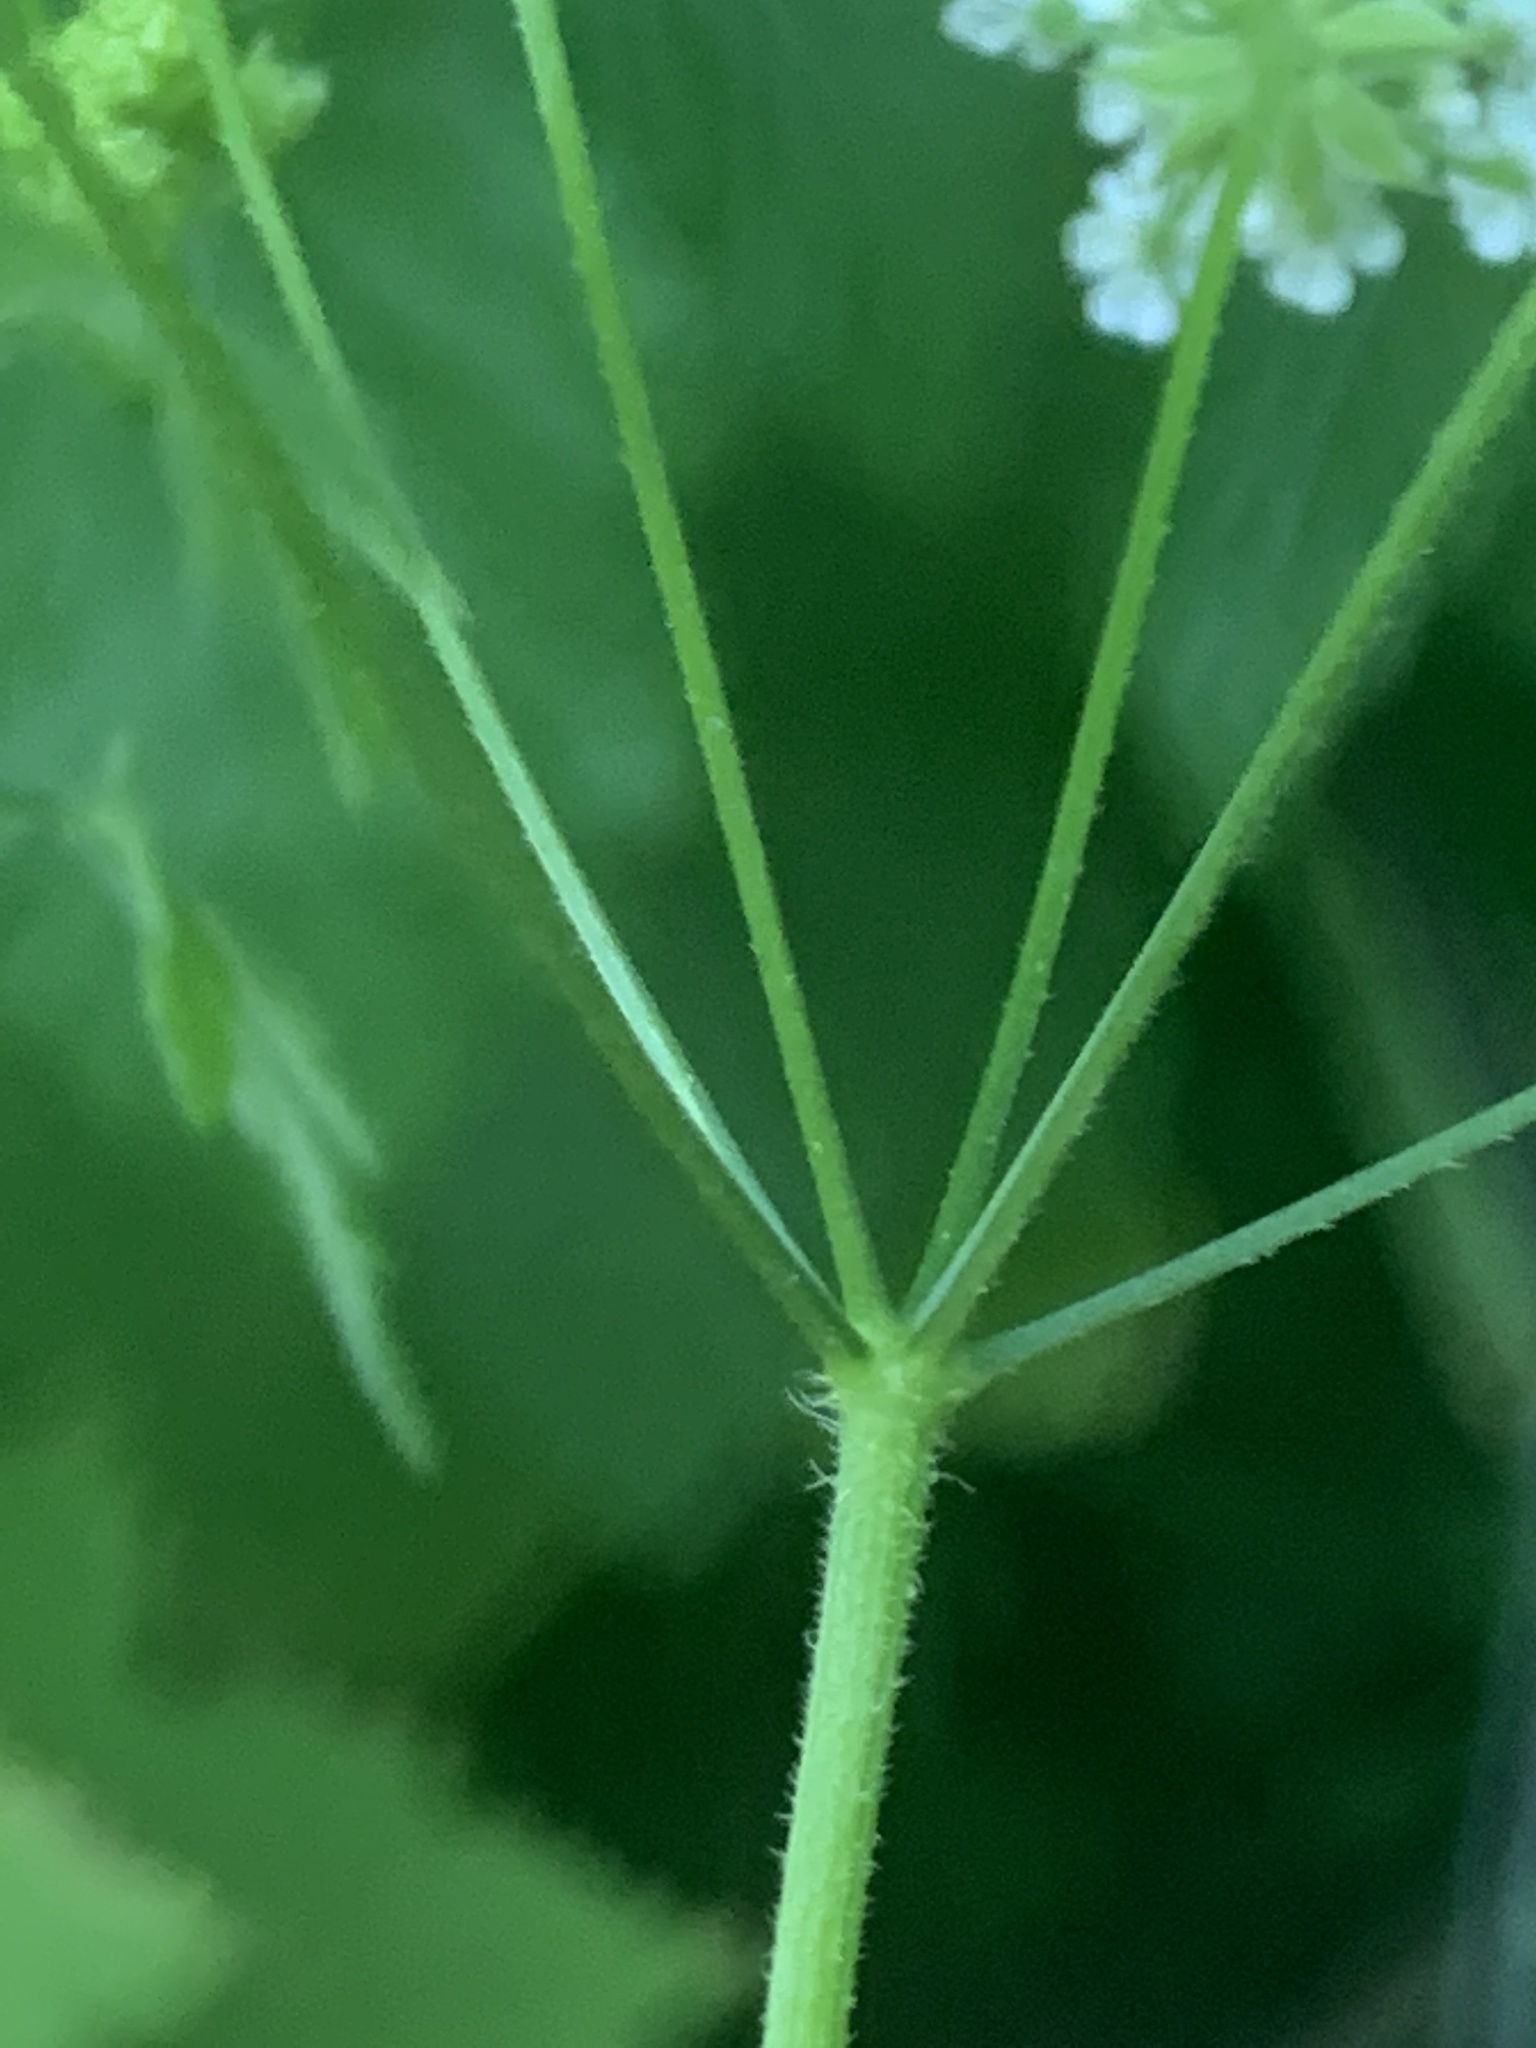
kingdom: Plantae
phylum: Tracheophyta
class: Magnoliopsida
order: Apiales
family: Apiaceae
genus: Chaerophyllum
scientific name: Chaerophyllum temulum
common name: Rough chervil
